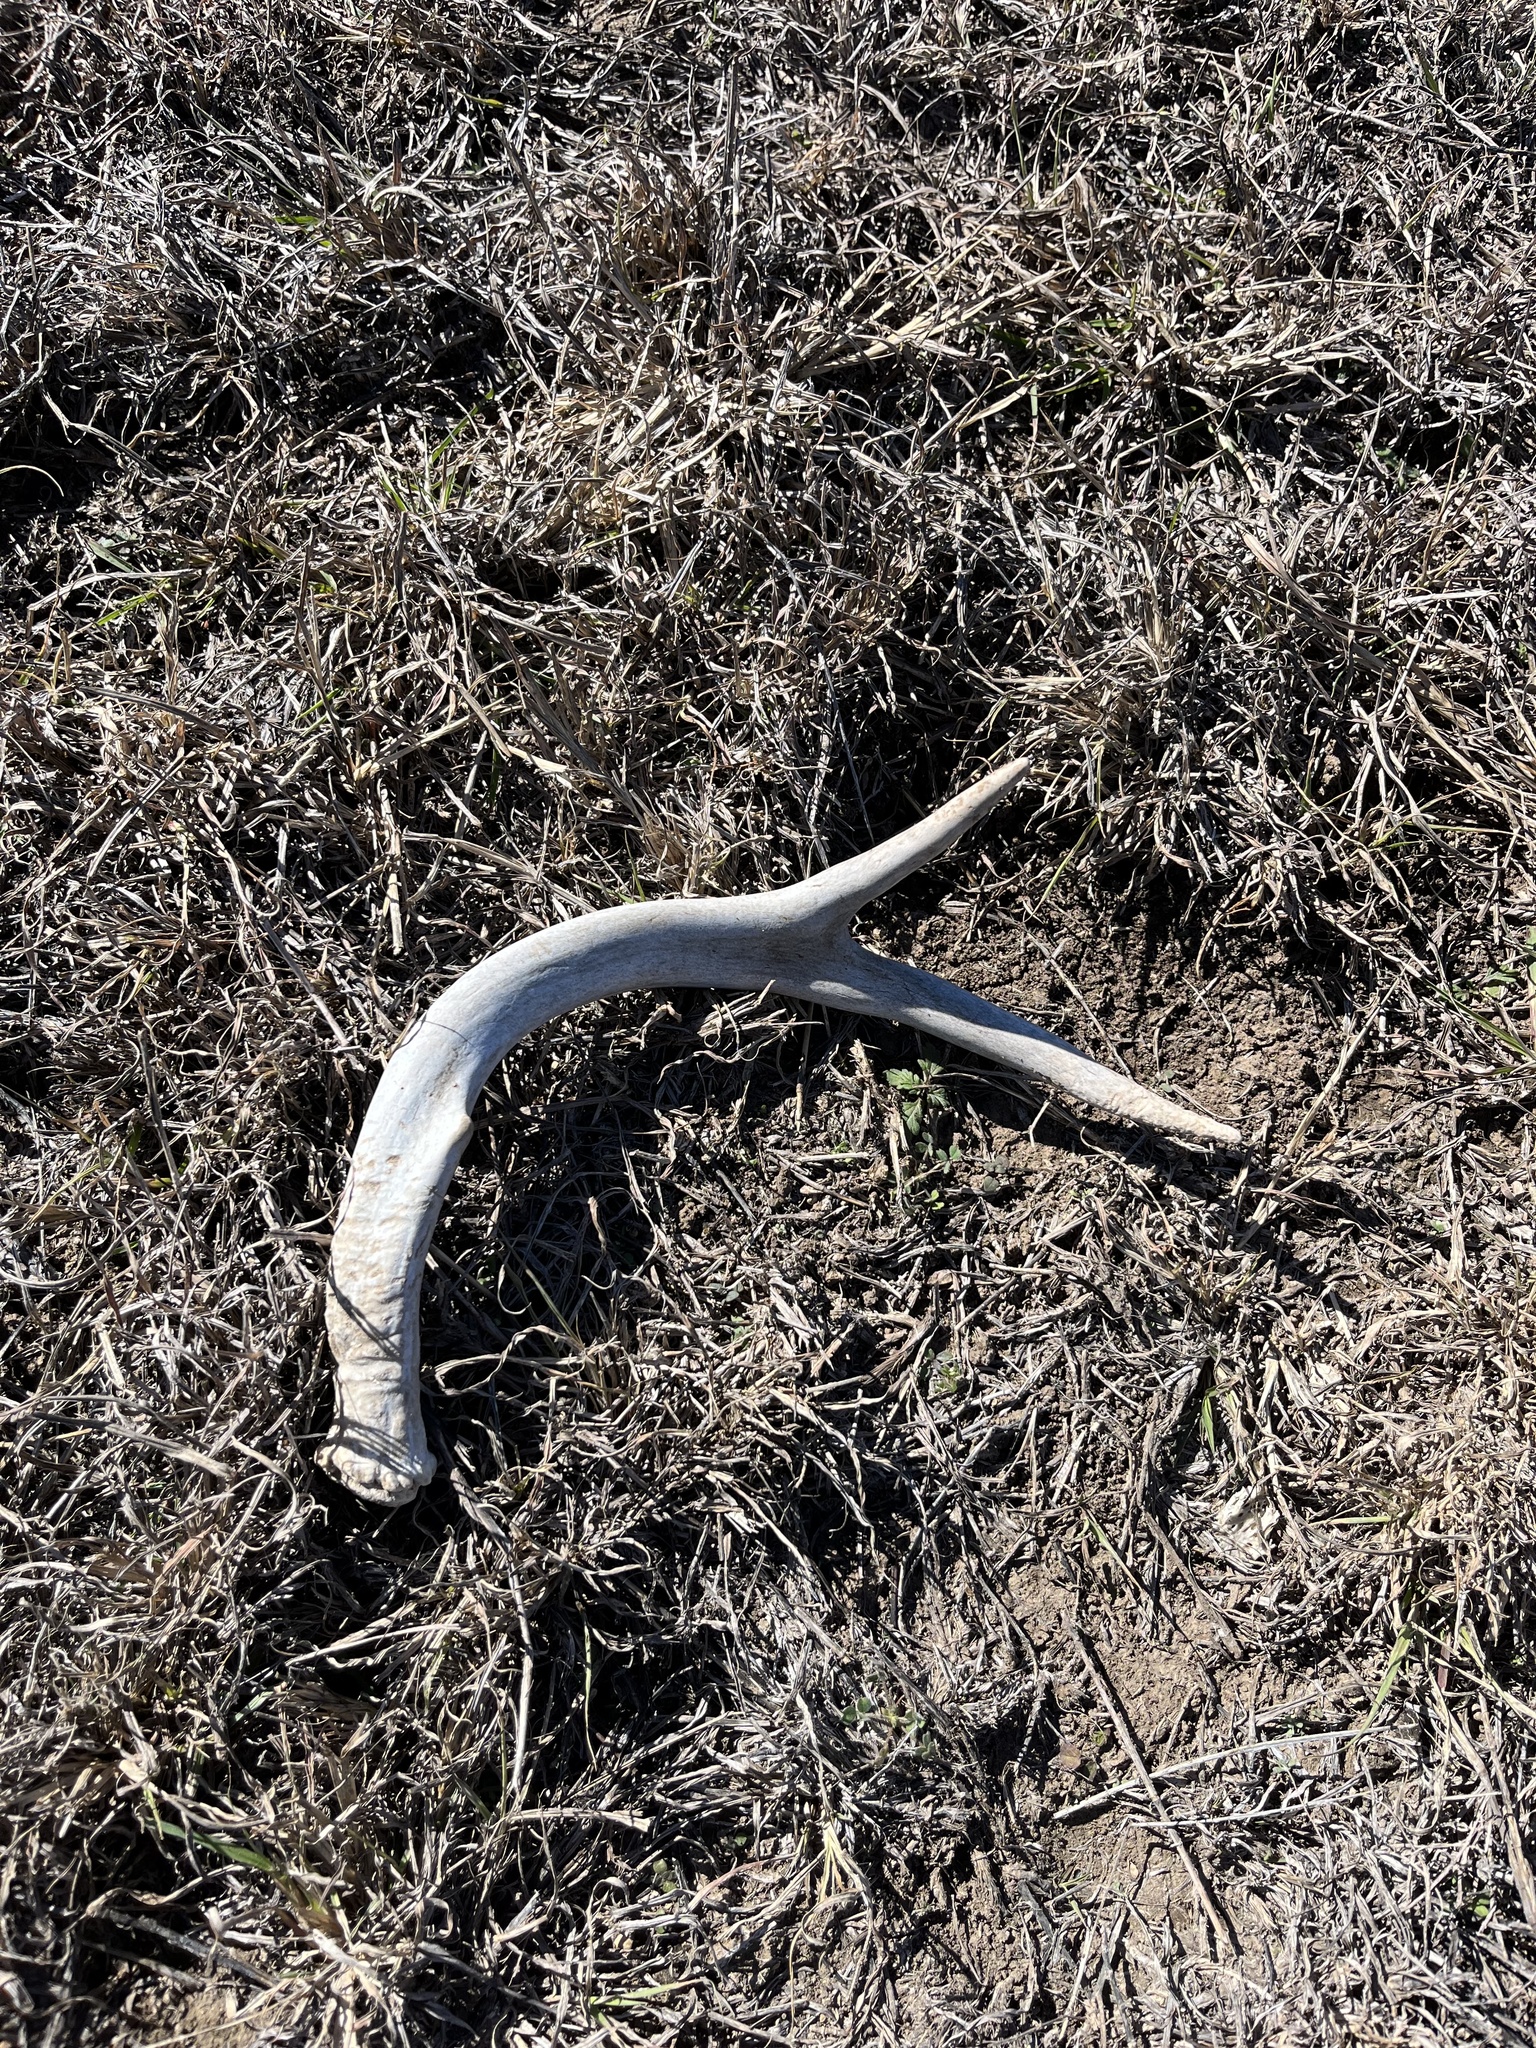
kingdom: Animalia
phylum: Chordata
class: Mammalia
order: Artiodactyla
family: Cervidae
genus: Odocoileus
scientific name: Odocoileus virginianus
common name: White-tailed deer
